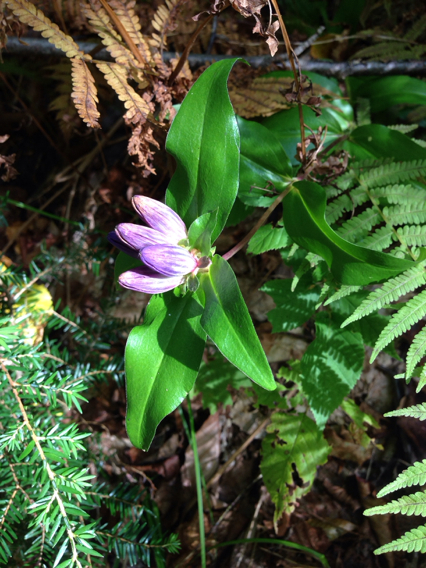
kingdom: Plantae
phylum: Tracheophyta
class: Magnoliopsida
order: Gentianales
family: Gentianaceae
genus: Gentiana
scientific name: Gentiana clausa
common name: Blind gentian
